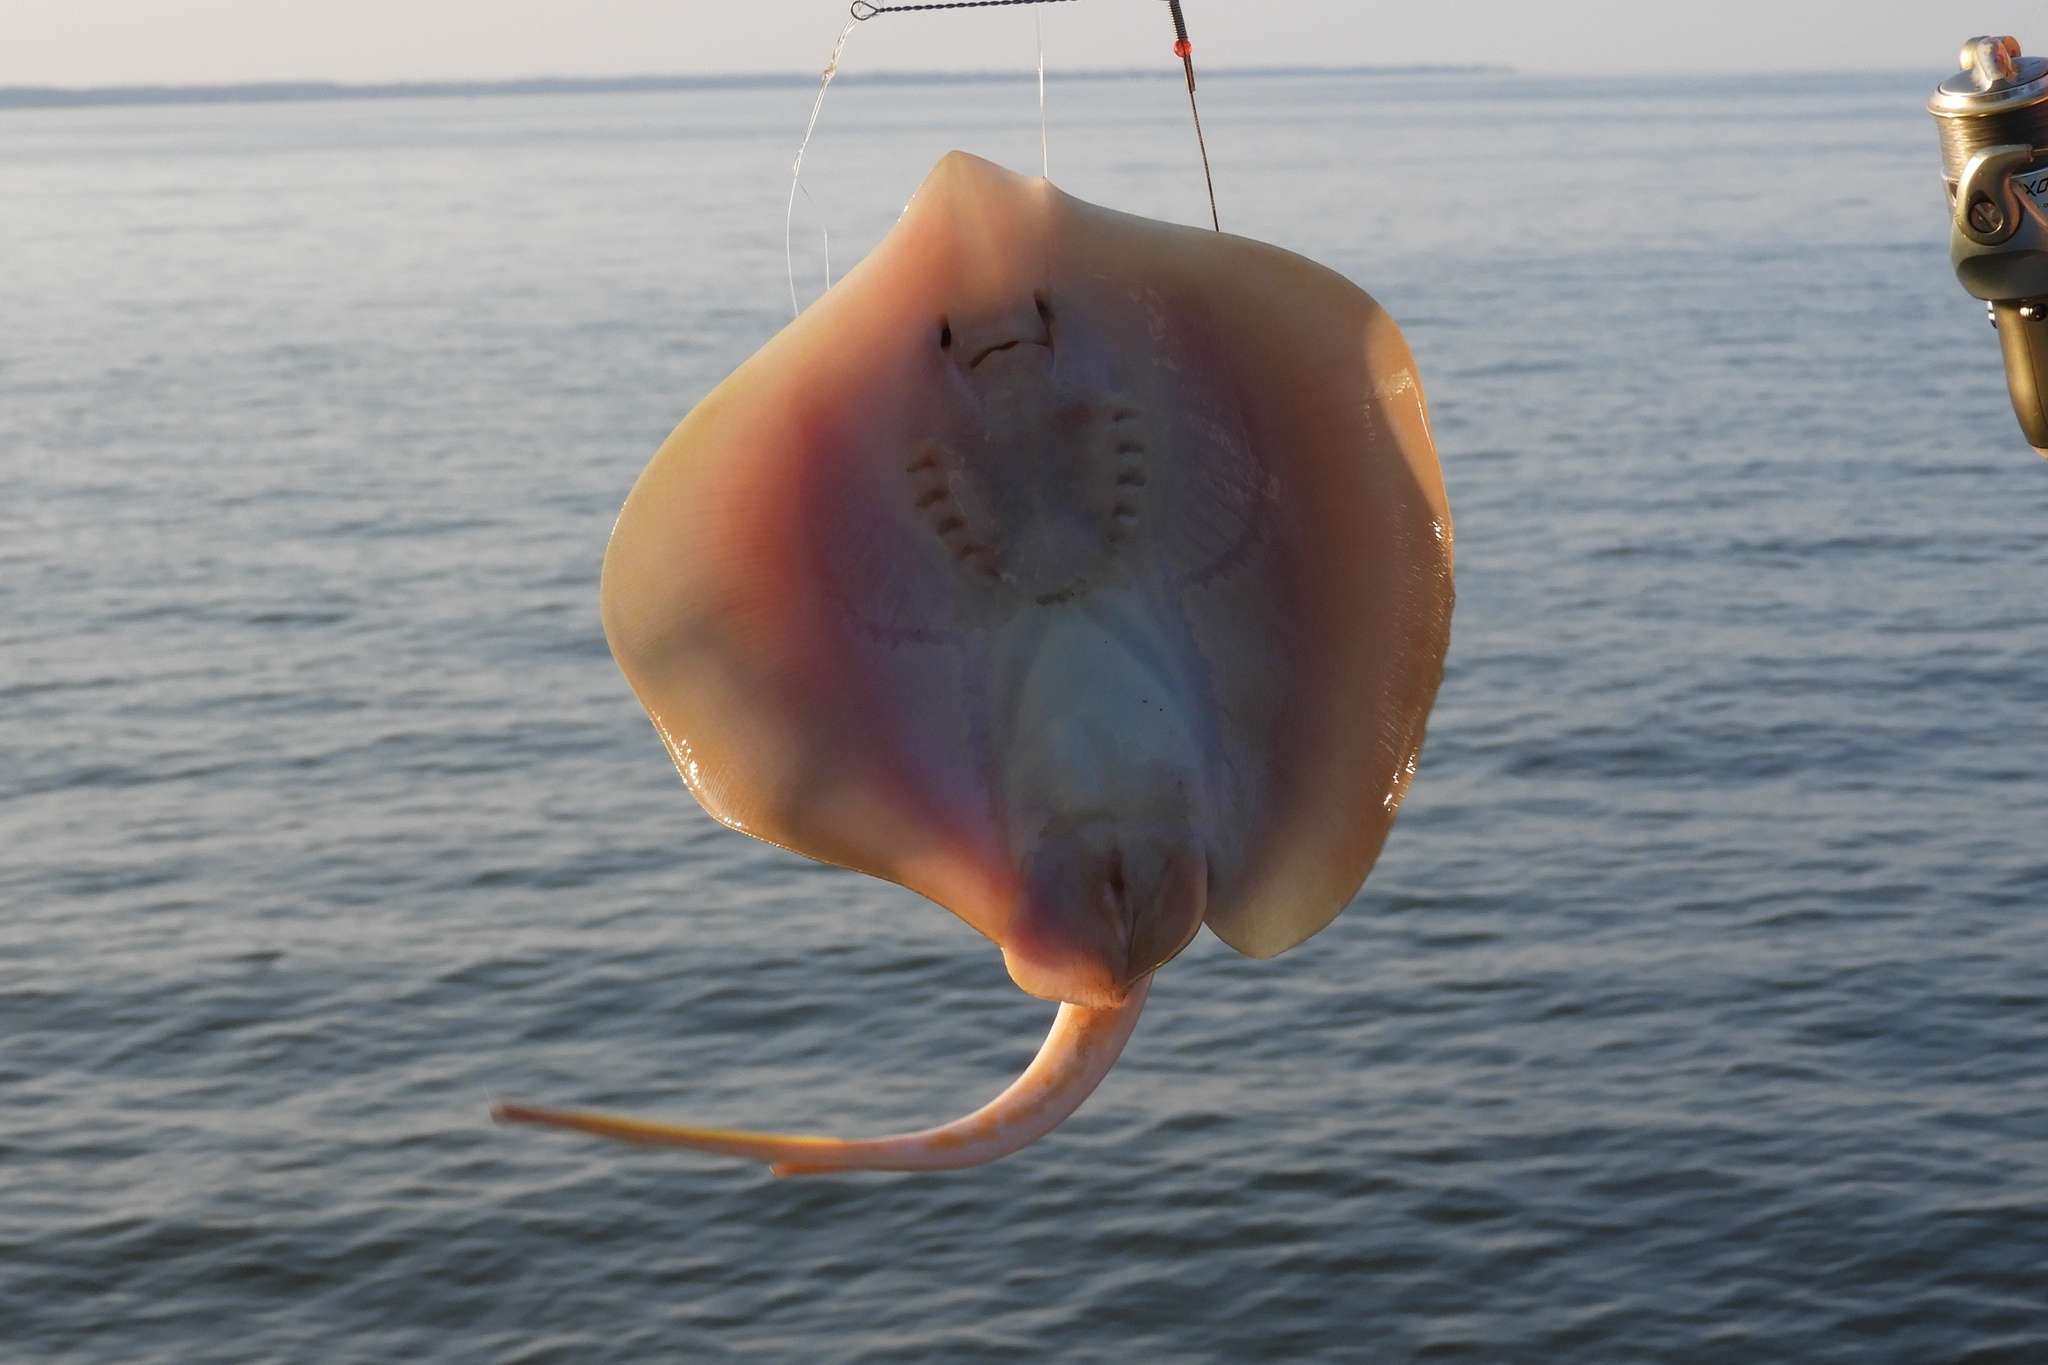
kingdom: Animalia
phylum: Chordata
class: Elasmobranchii
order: Myliobatiformes
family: Dasyatidae
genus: Hypanus
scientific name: Hypanus sabinus
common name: Atlantic stingray
